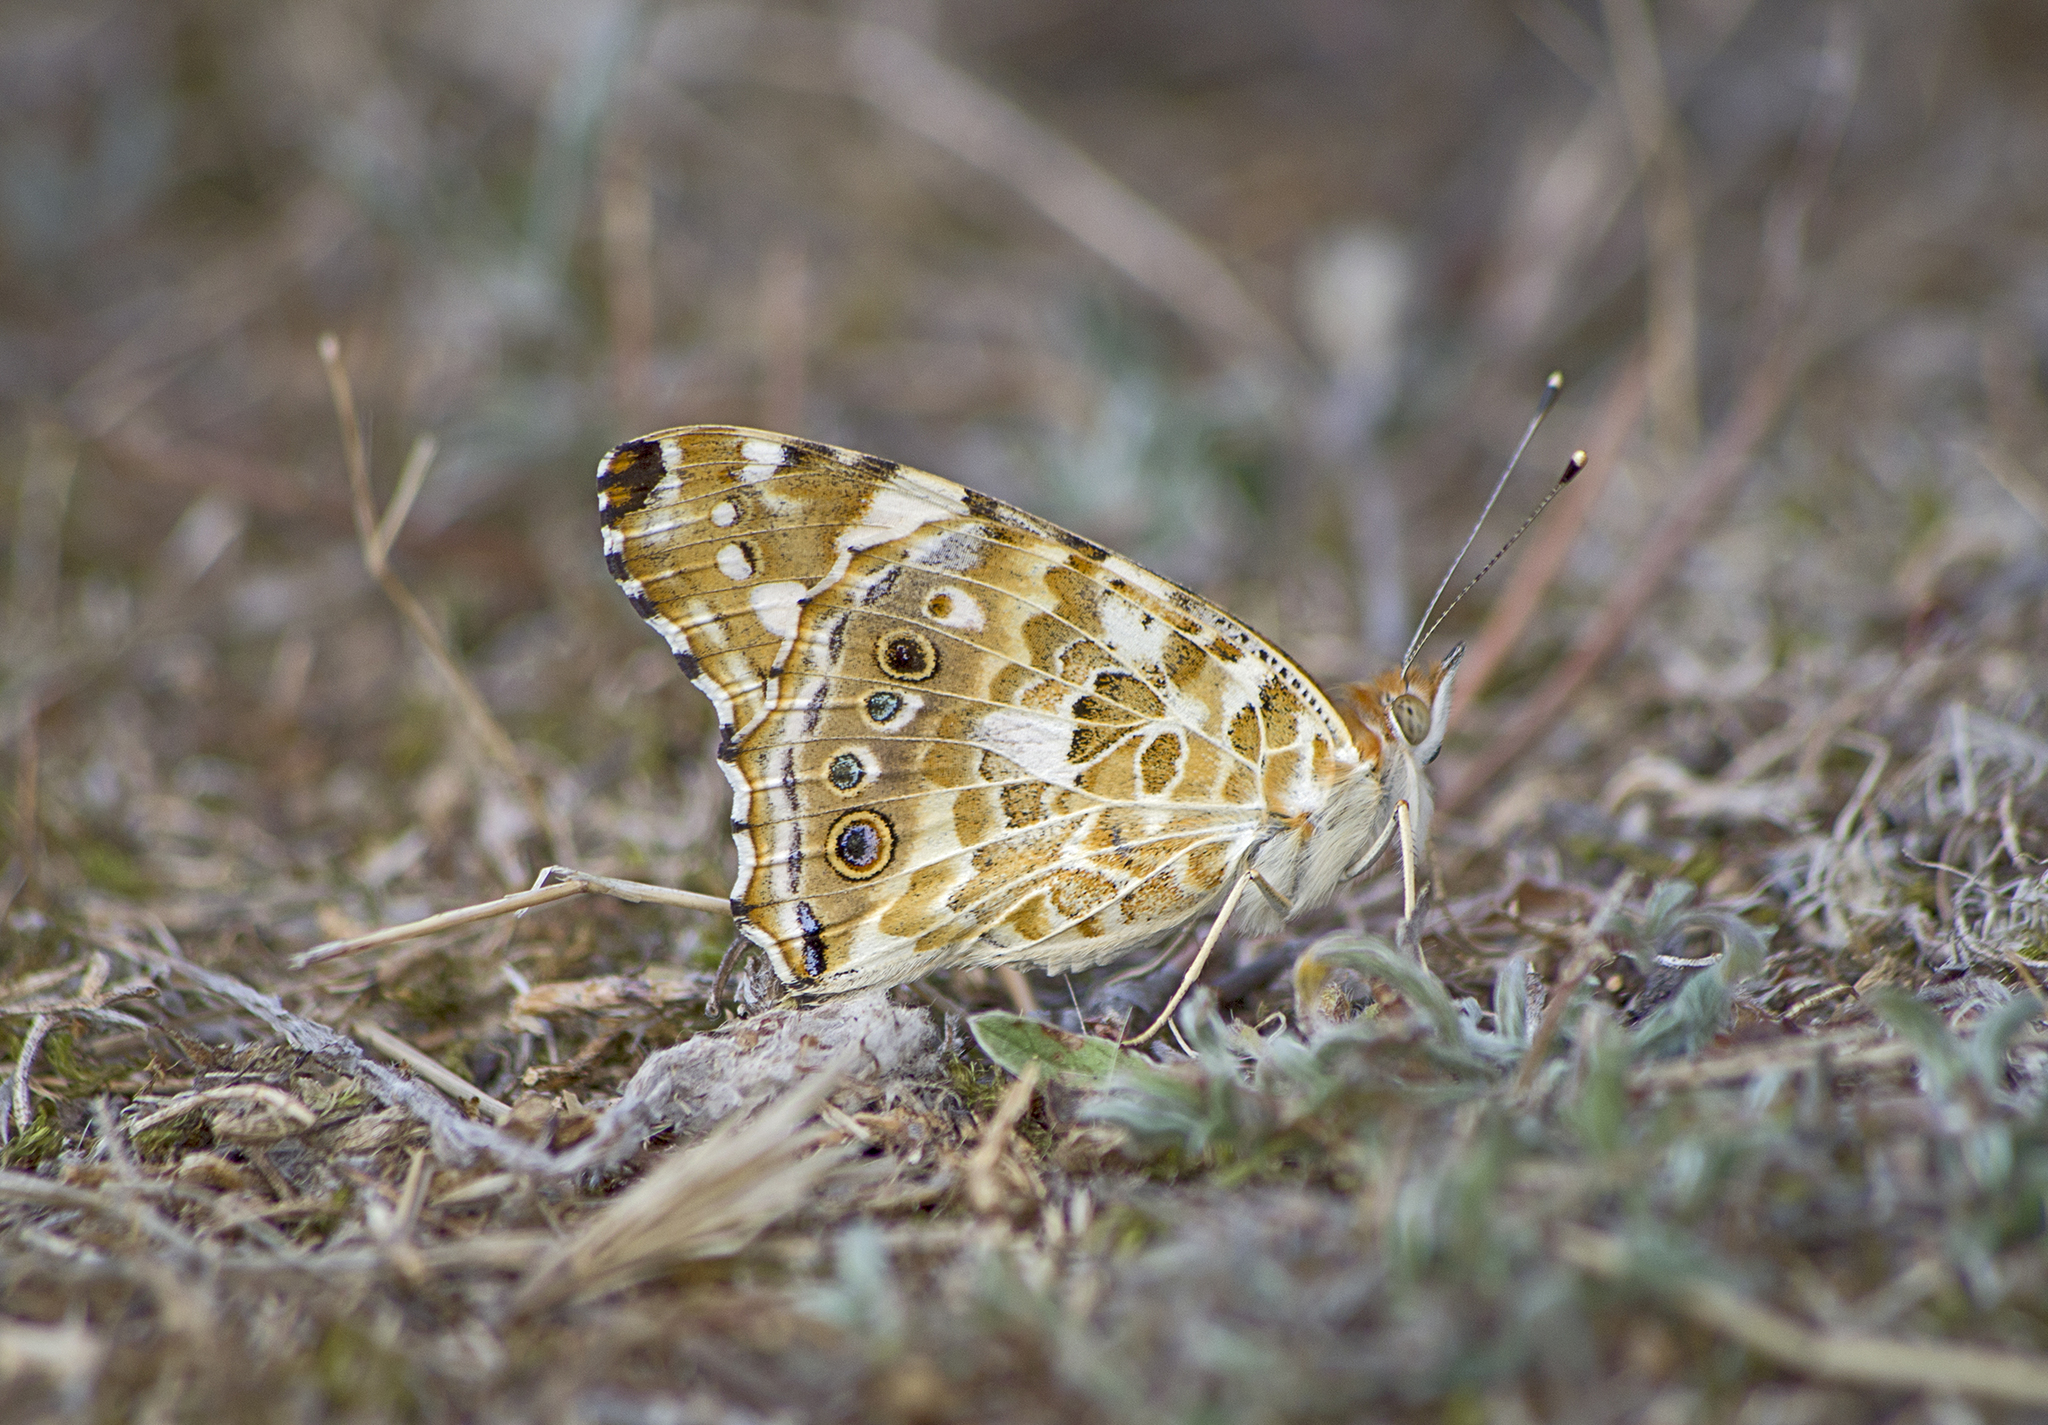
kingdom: Animalia
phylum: Arthropoda
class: Insecta
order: Lepidoptera
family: Nymphalidae
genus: Vanessa
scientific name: Vanessa cardui
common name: Painted lady
